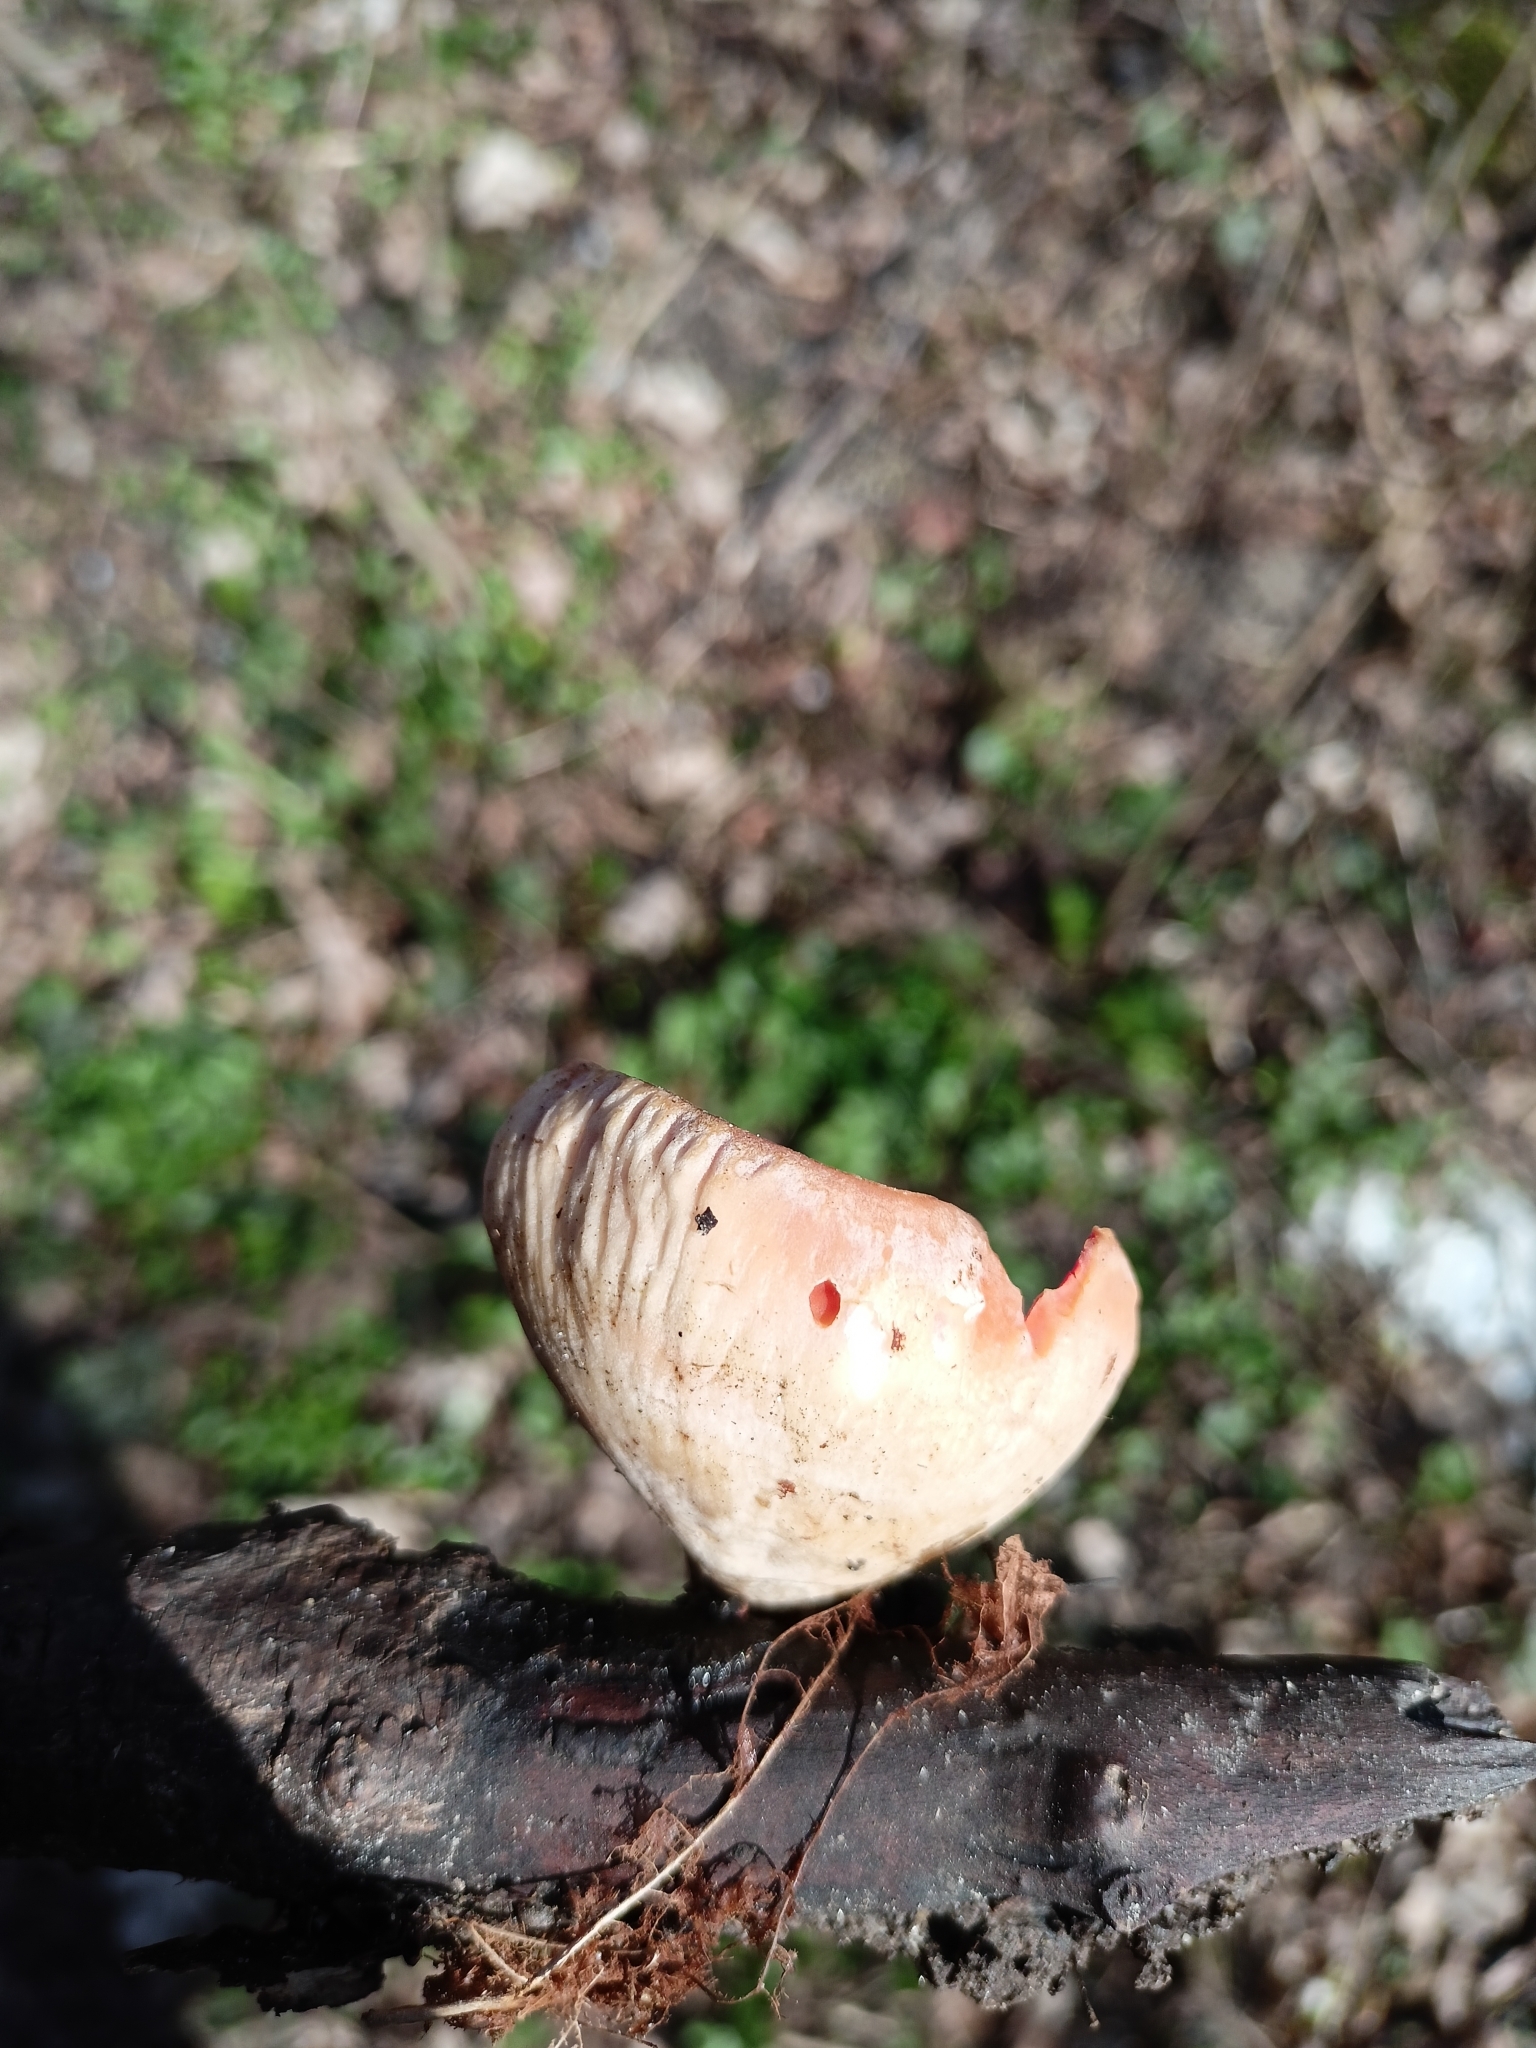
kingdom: Fungi
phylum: Ascomycota
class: Pezizomycetes
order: Pezizales
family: Sarcoscyphaceae
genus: Sarcoscypha
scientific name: Sarcoscypha
